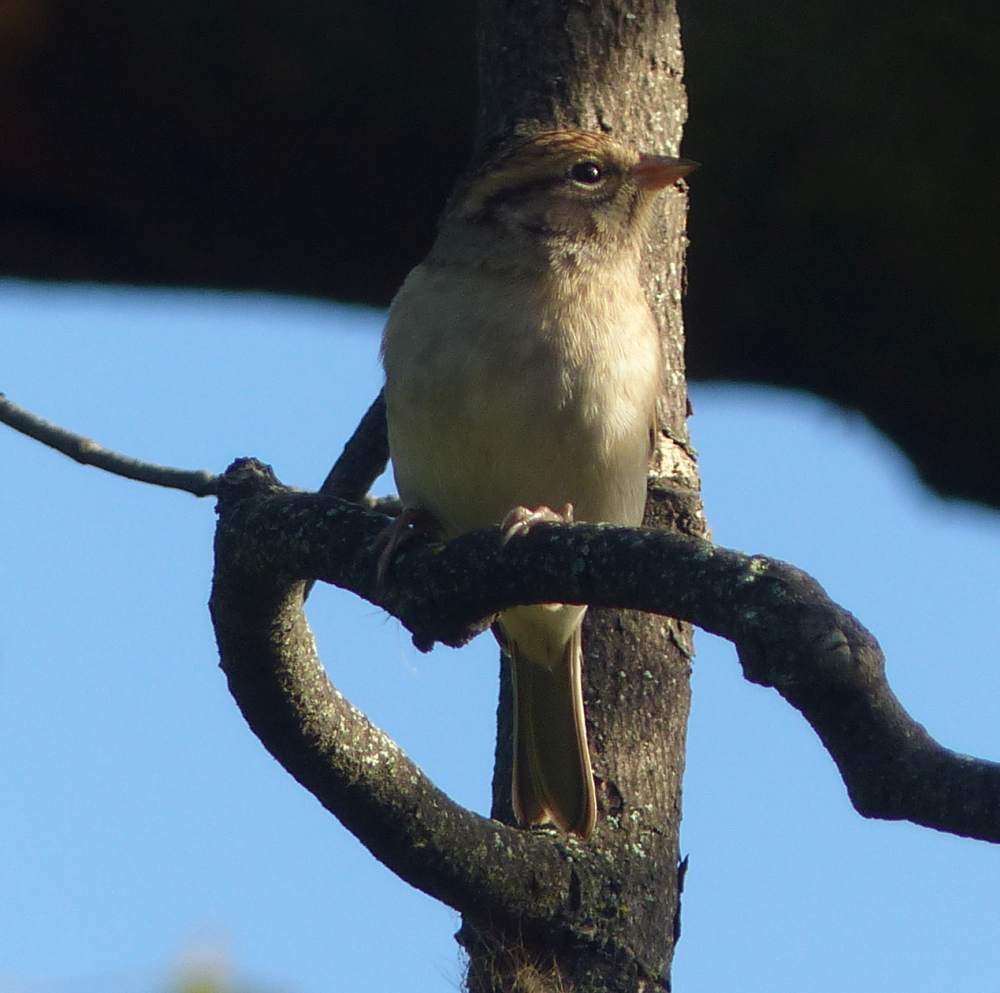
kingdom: Animalia
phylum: Chordata
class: Aves
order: Passeriformes
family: Passerellidae
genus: Spizella
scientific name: Spizella passerina
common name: Chipping sparrow
